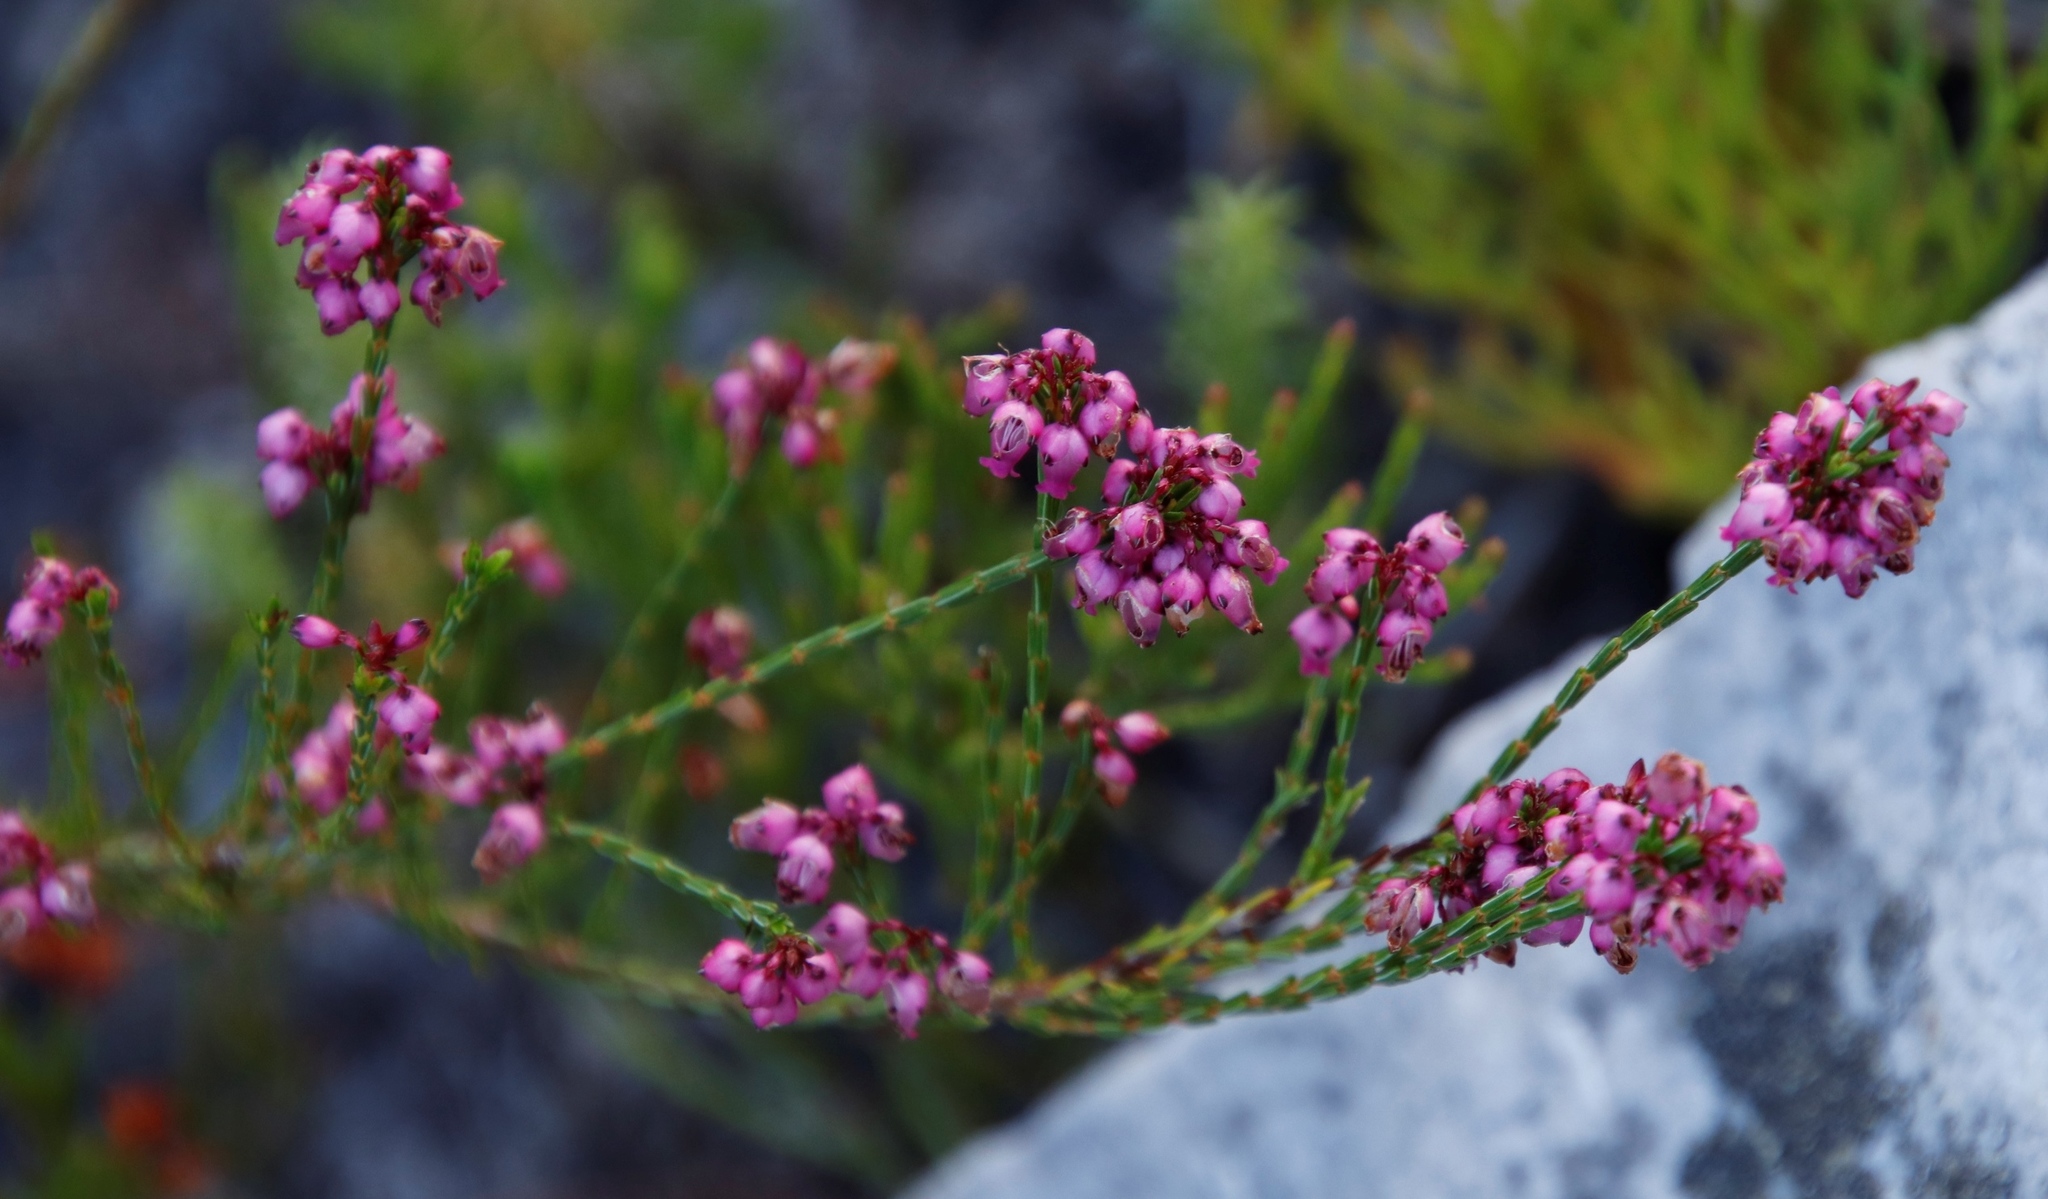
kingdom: Plantae
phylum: Tracheophyta
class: Magnoliopsida
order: Ericales
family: Ericaceae
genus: Erica
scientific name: Erica rhopalantha
